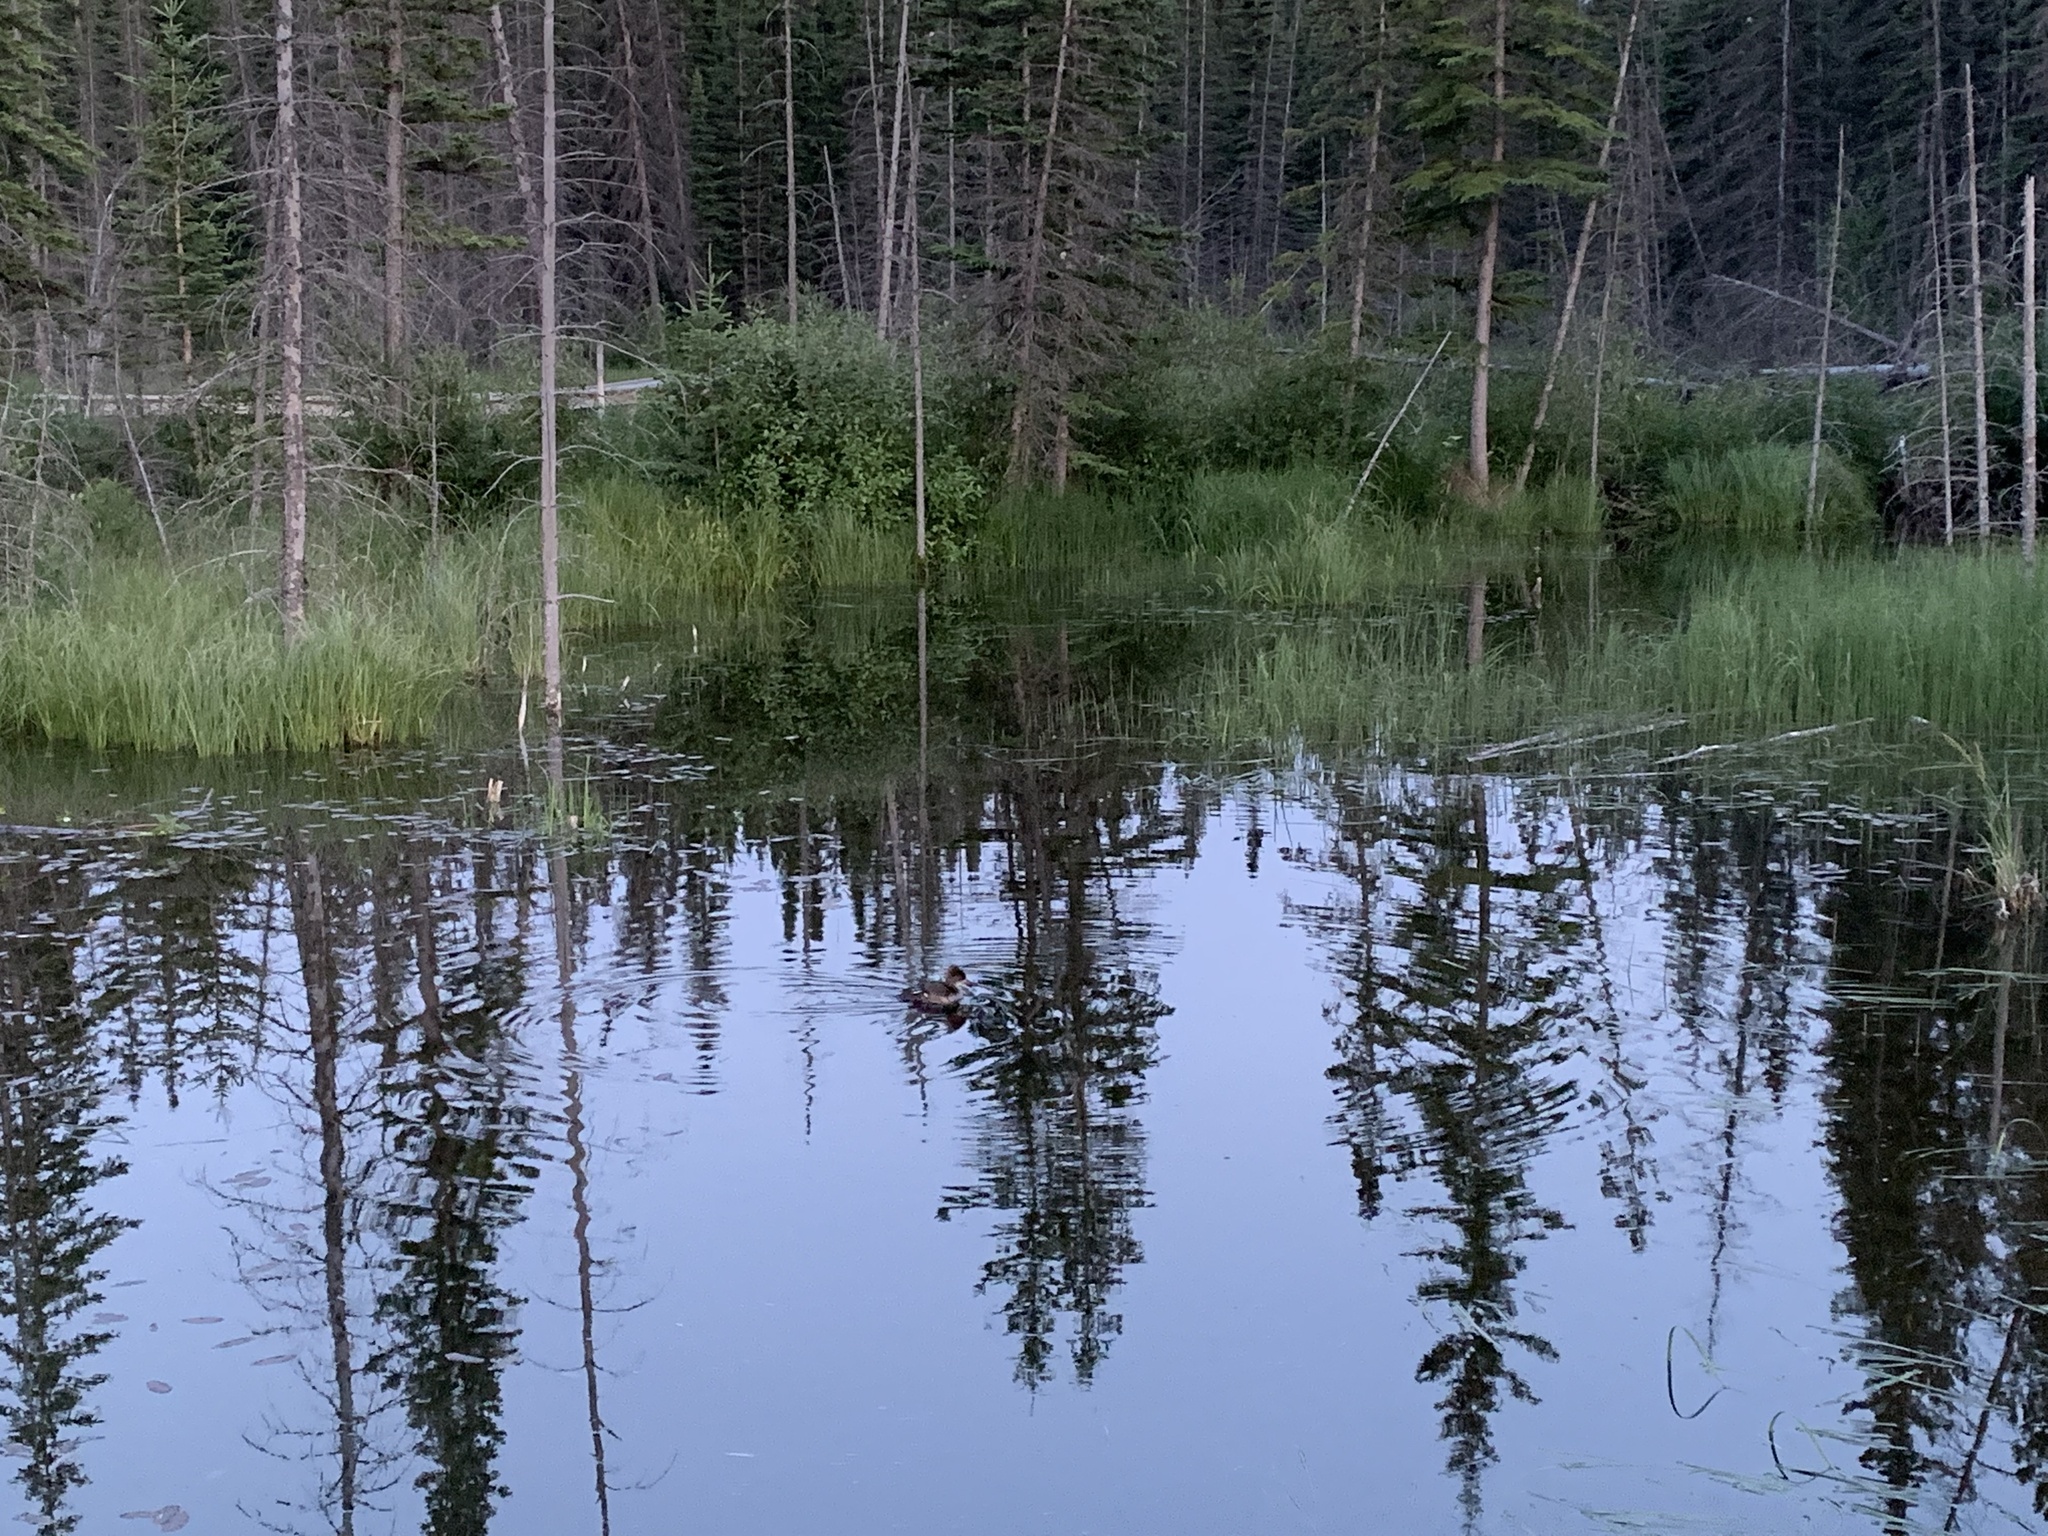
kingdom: Animalia
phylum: Chordata
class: Aves
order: Anseriformes
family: Anatidae
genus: Lophodytes
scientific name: Lophodytes cucullatus
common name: Hooded merganser
